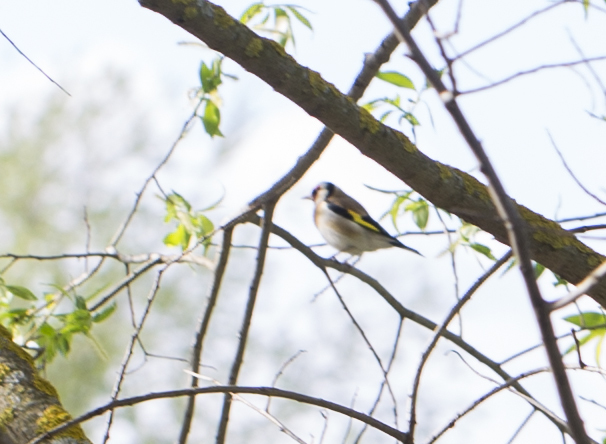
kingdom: Animalia
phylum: Chordata
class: Aves
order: Passeriformes
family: Fringillidae
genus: Carduelis
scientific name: Carduelis carduelis
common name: European goldfinch
